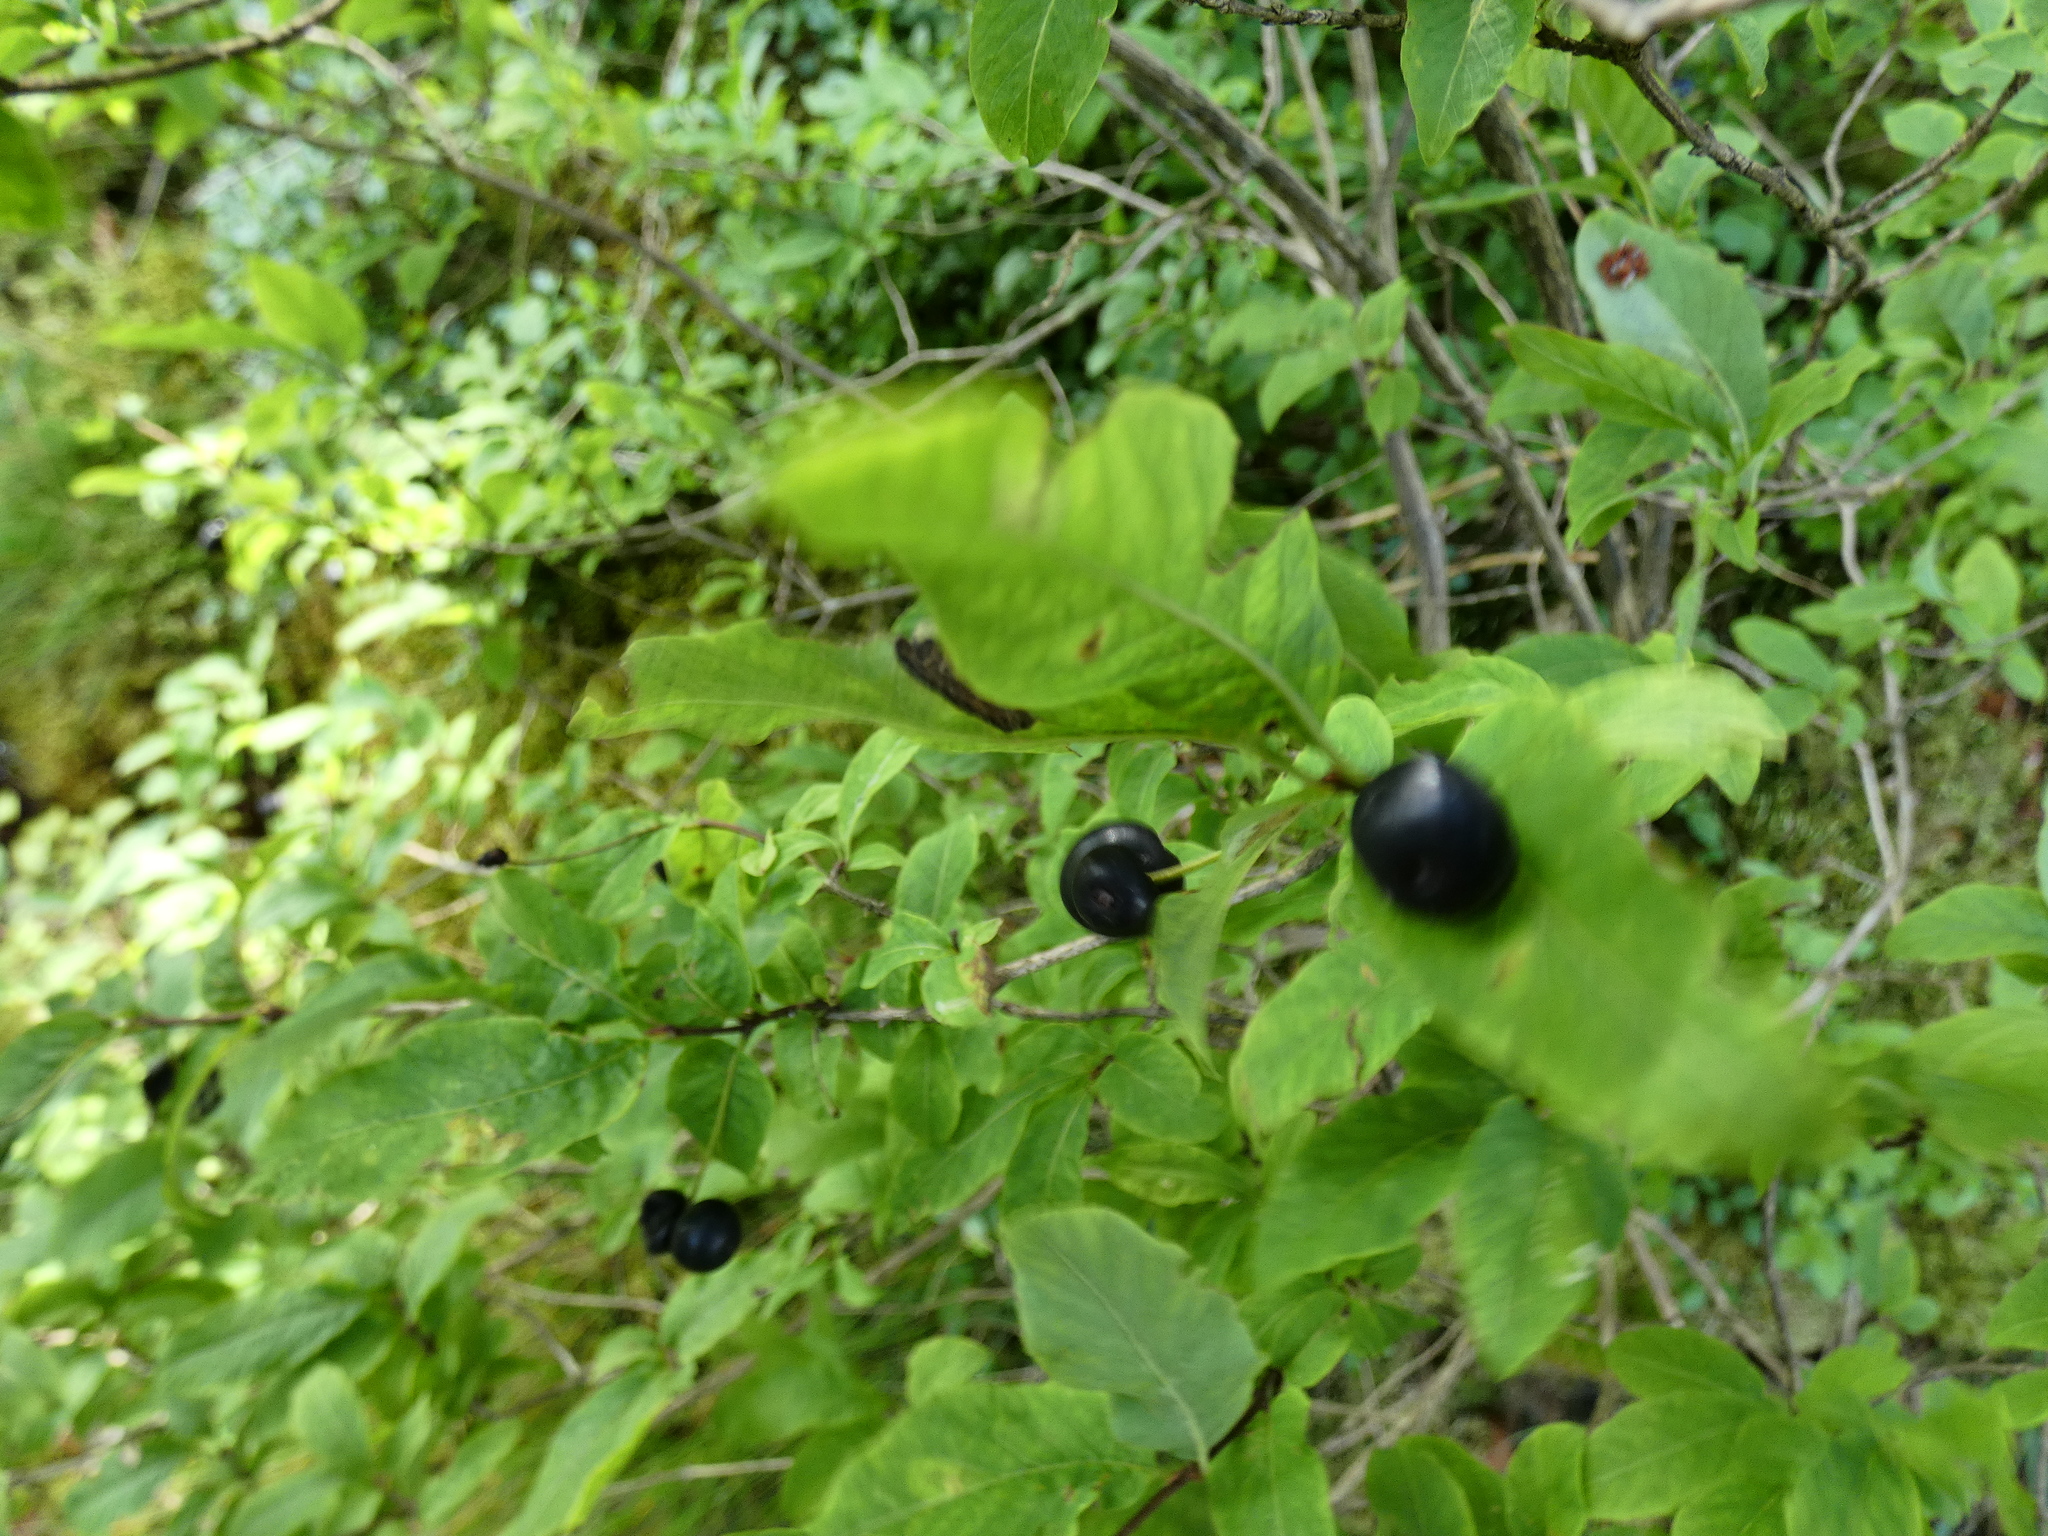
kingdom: Plantae
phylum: Tracheophyta
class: Magnoliopsida
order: Dipsacales
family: Caprifoliaceae
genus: Lonicera
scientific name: Lonicera nigra
